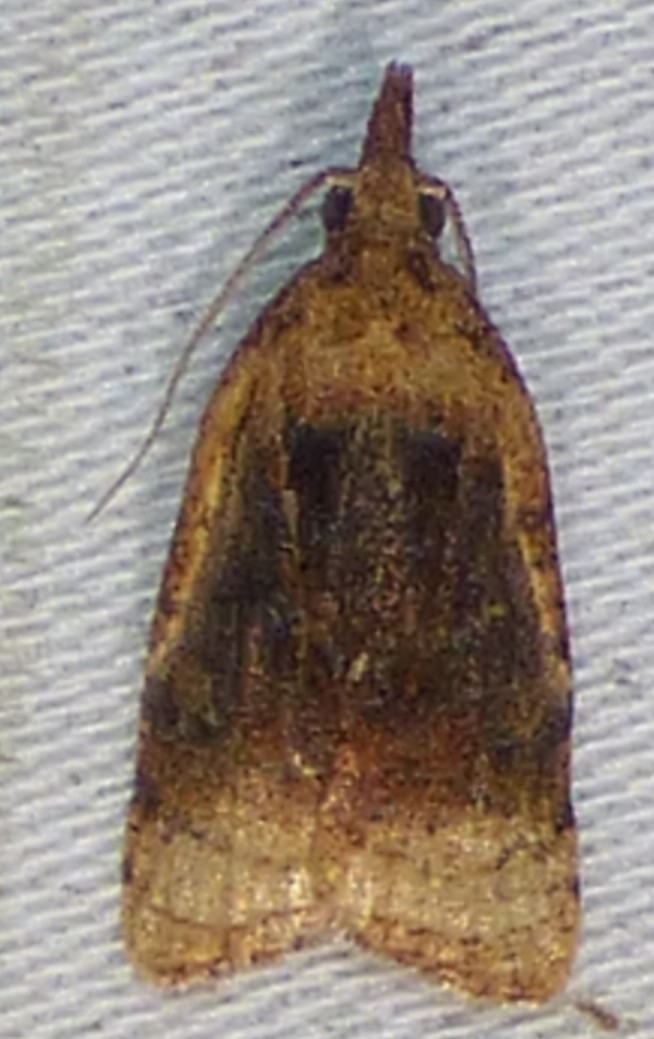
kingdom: Animalia
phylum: Arthropoda
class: Insecta
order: Lepidoptera
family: Tortricidae
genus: Platynota
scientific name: Platynota flavedana
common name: Black-shaded platynota moth
